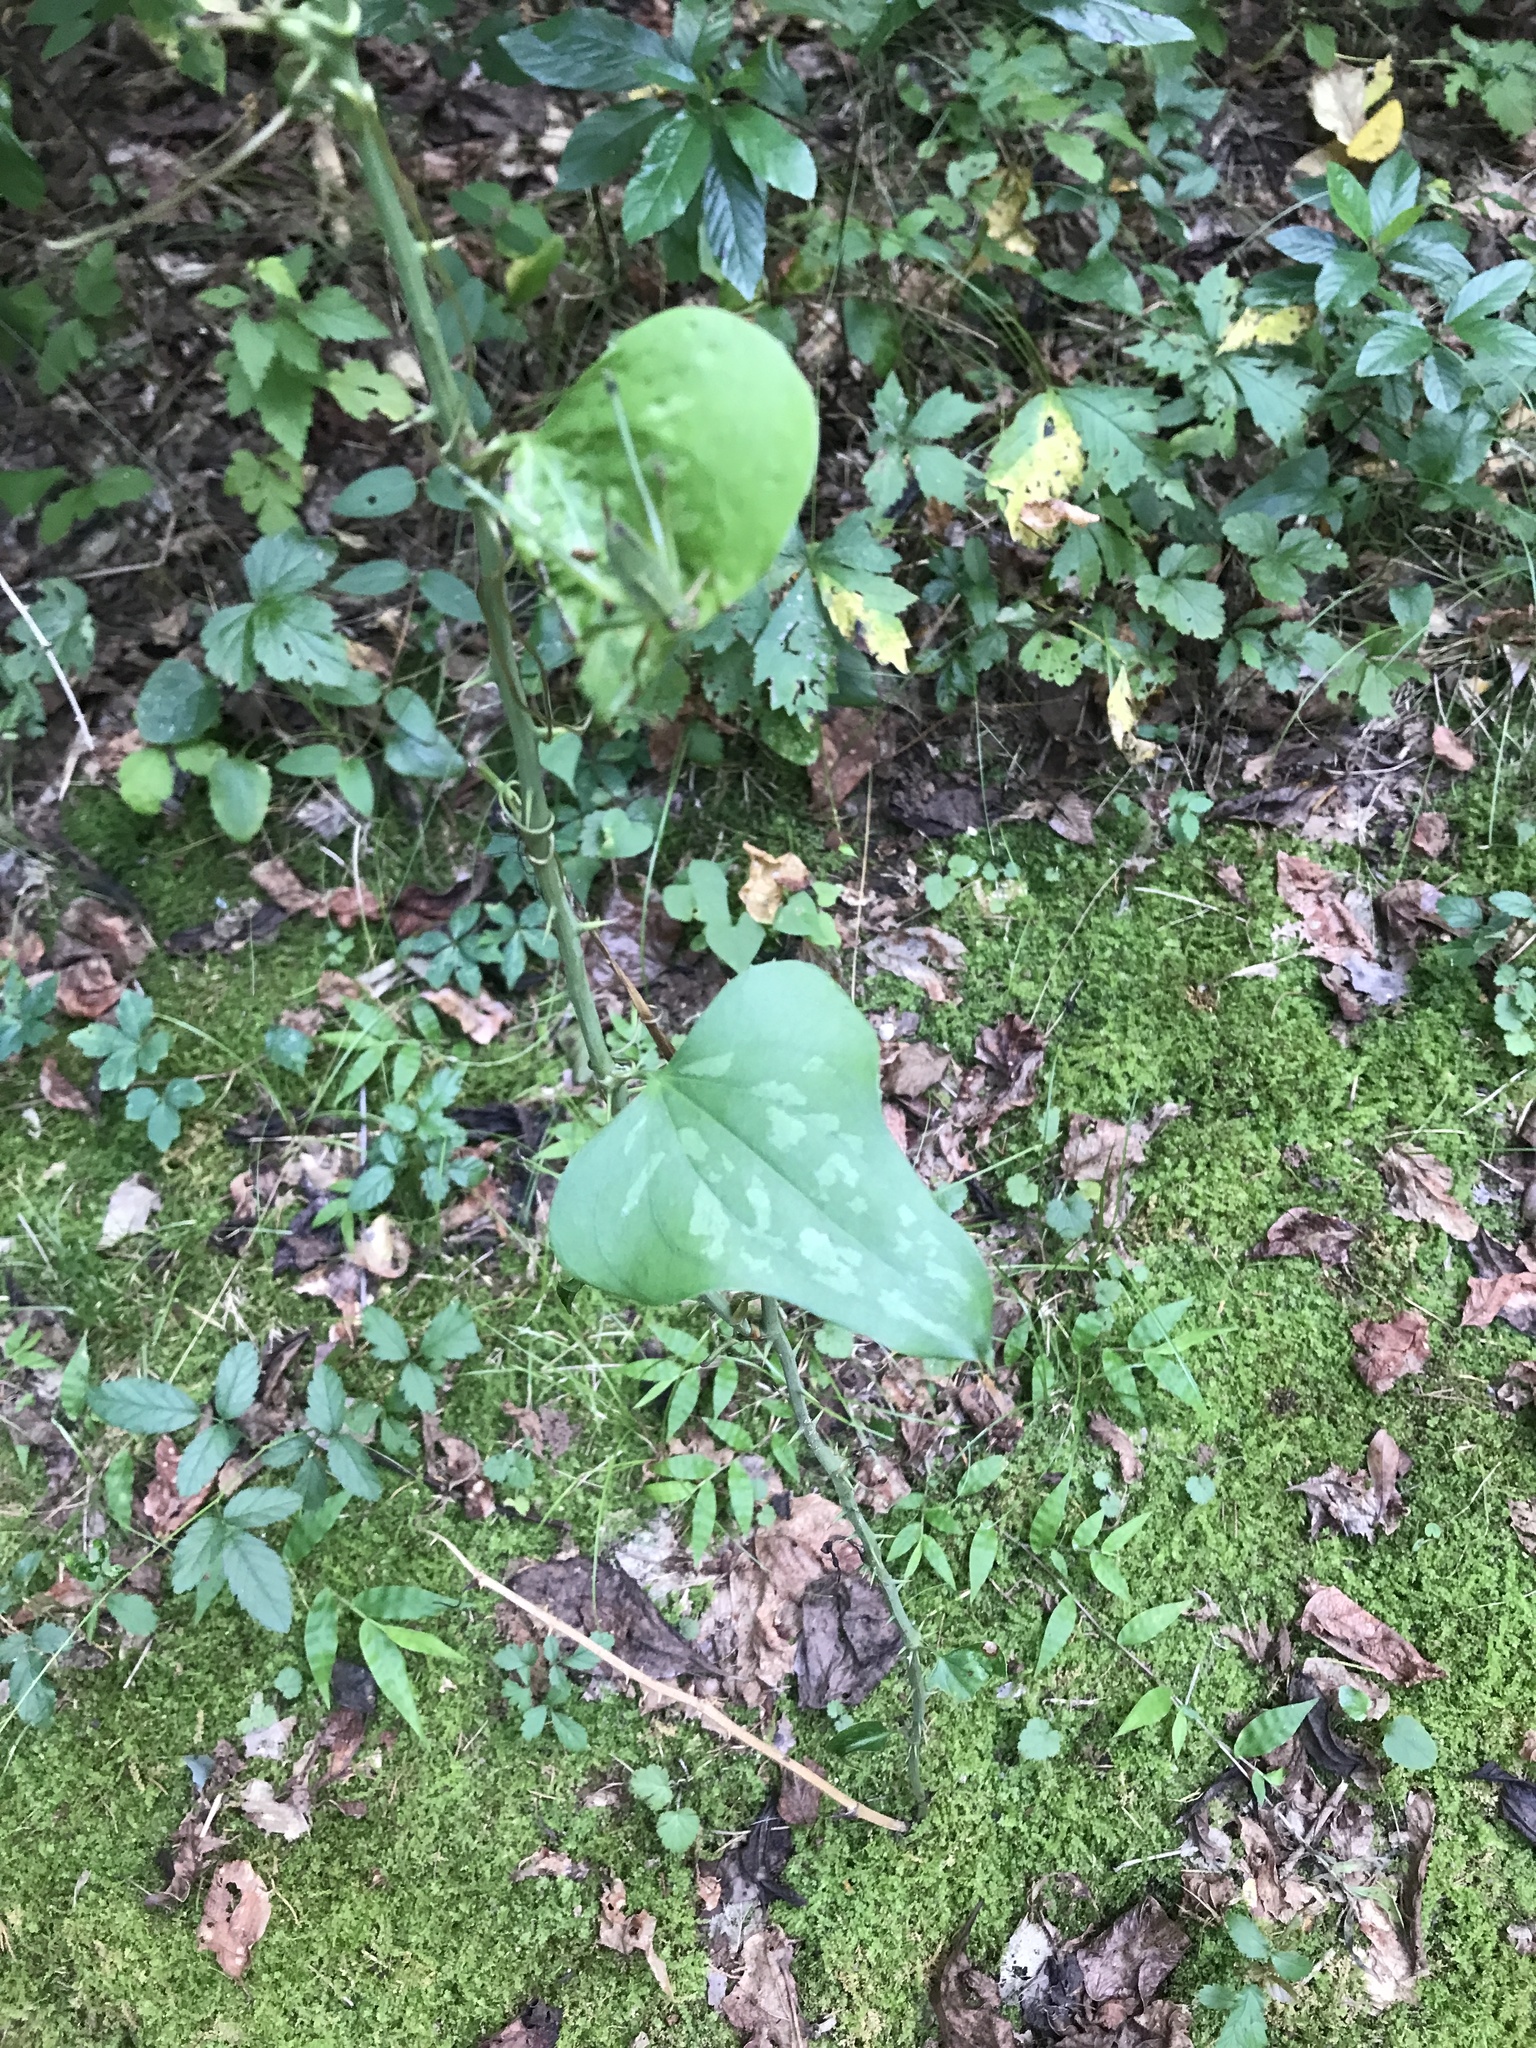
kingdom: Plantae
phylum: Tracheophyta
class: Liliopsida
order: Liliales
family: Smilacaceae
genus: Smilax
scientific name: Smilax bona-nox
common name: Catbrier
